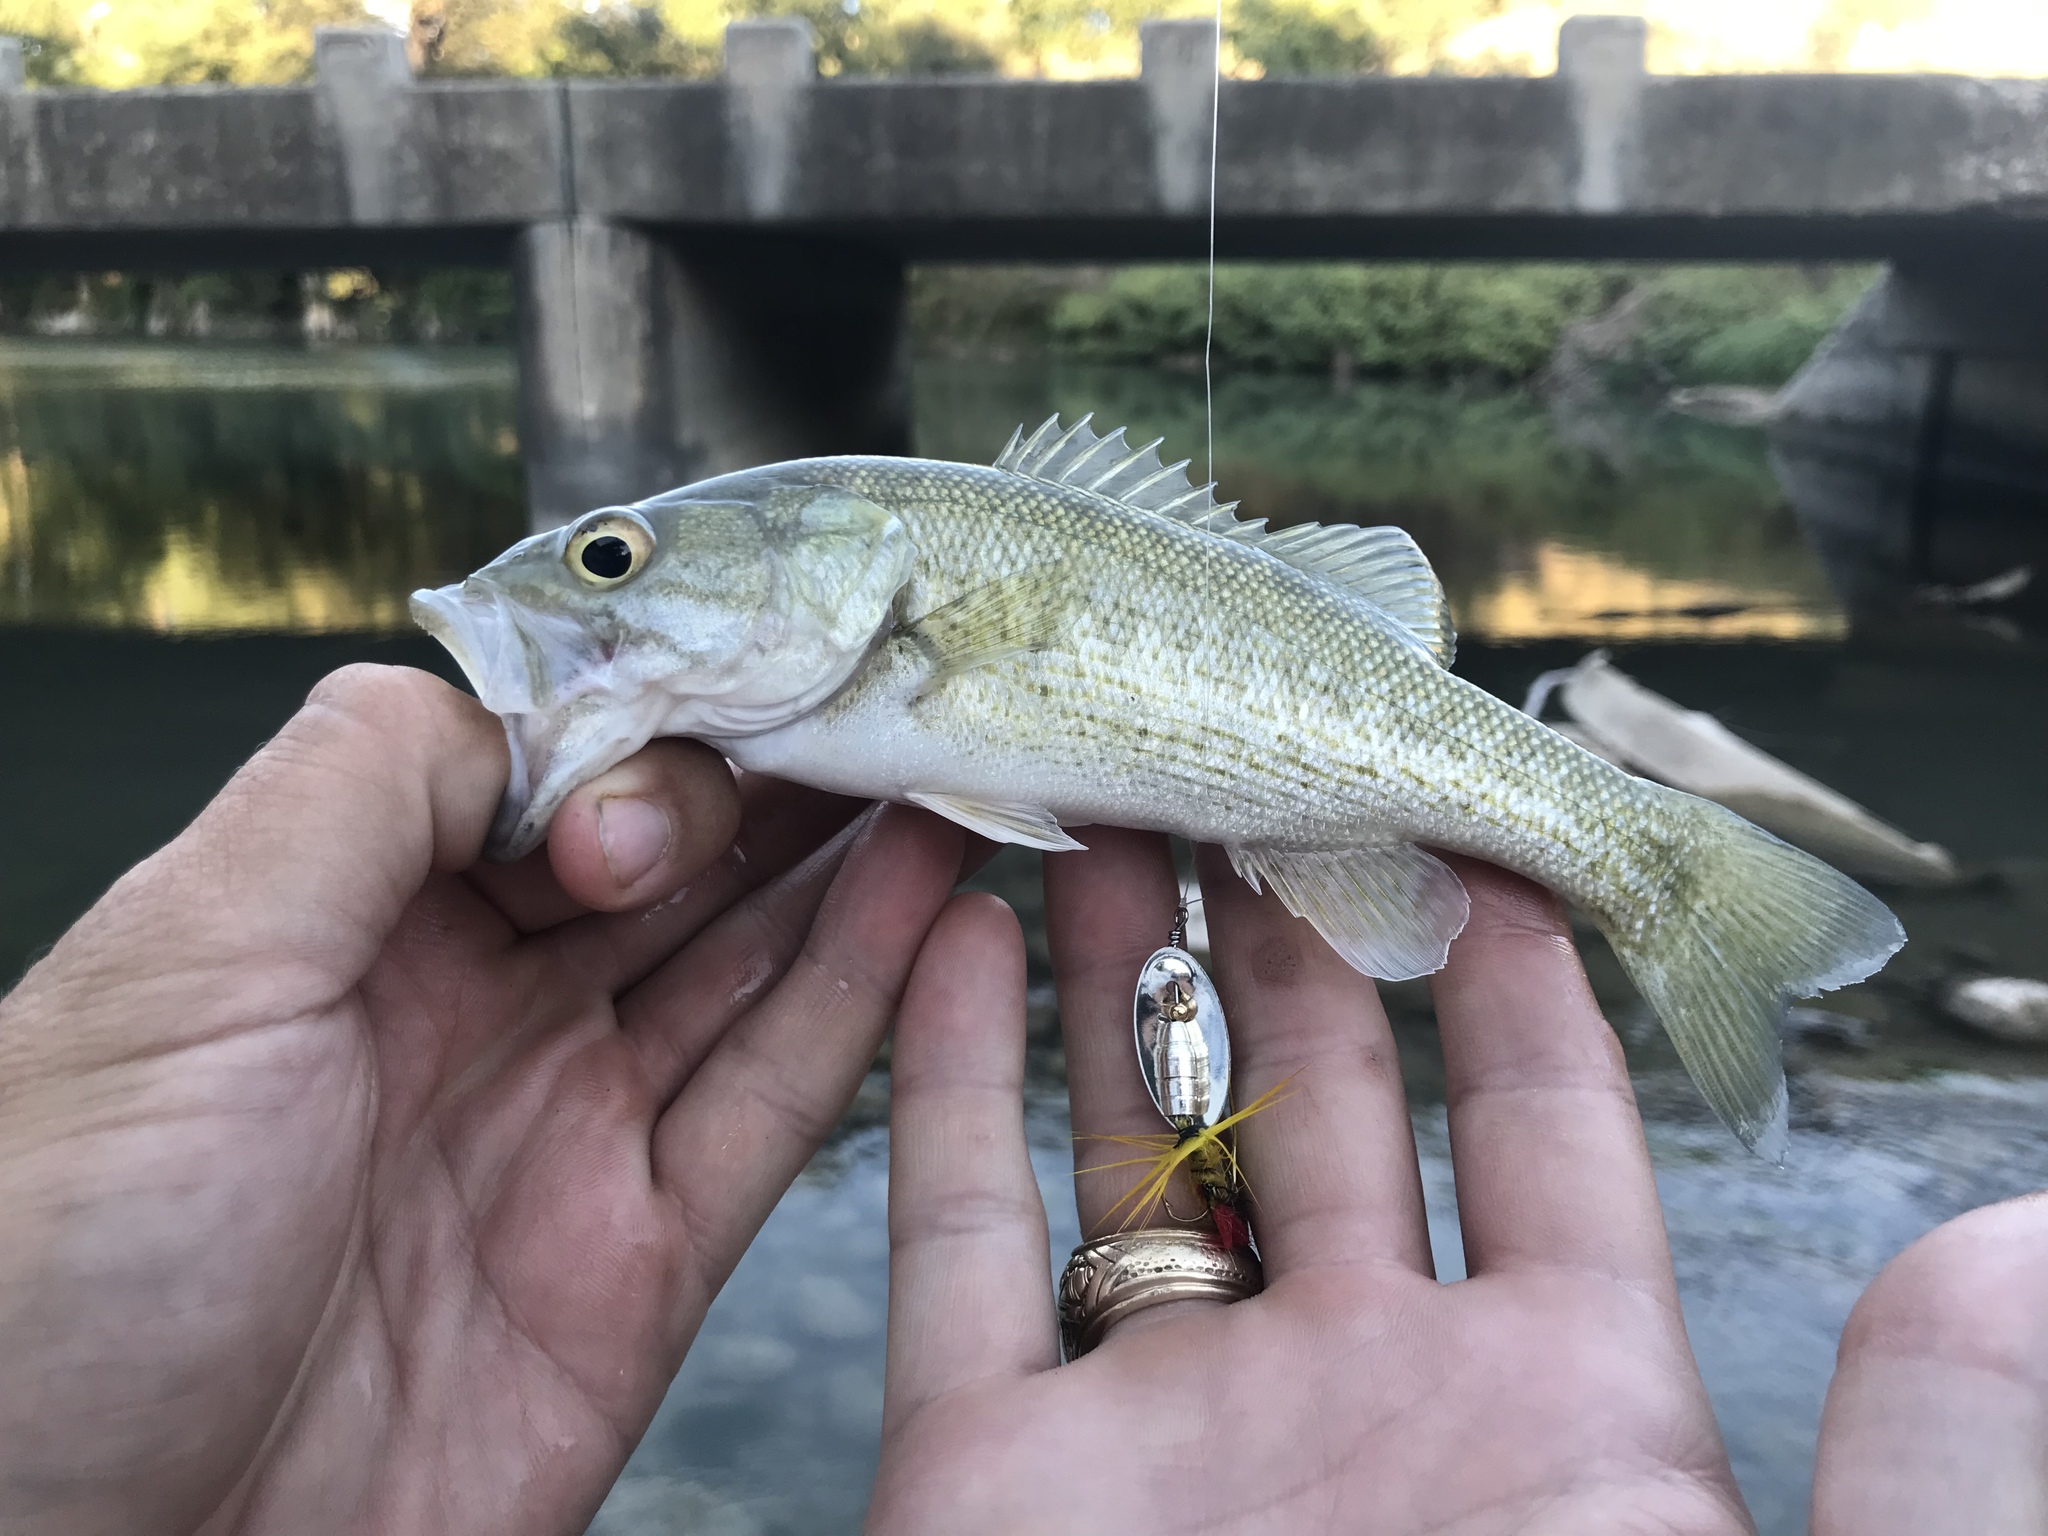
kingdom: Animalia
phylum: Chordata
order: Perciformes
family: Centrarchidae
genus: Micropterus
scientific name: Micropterus treculii
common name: Guadalupe bass
